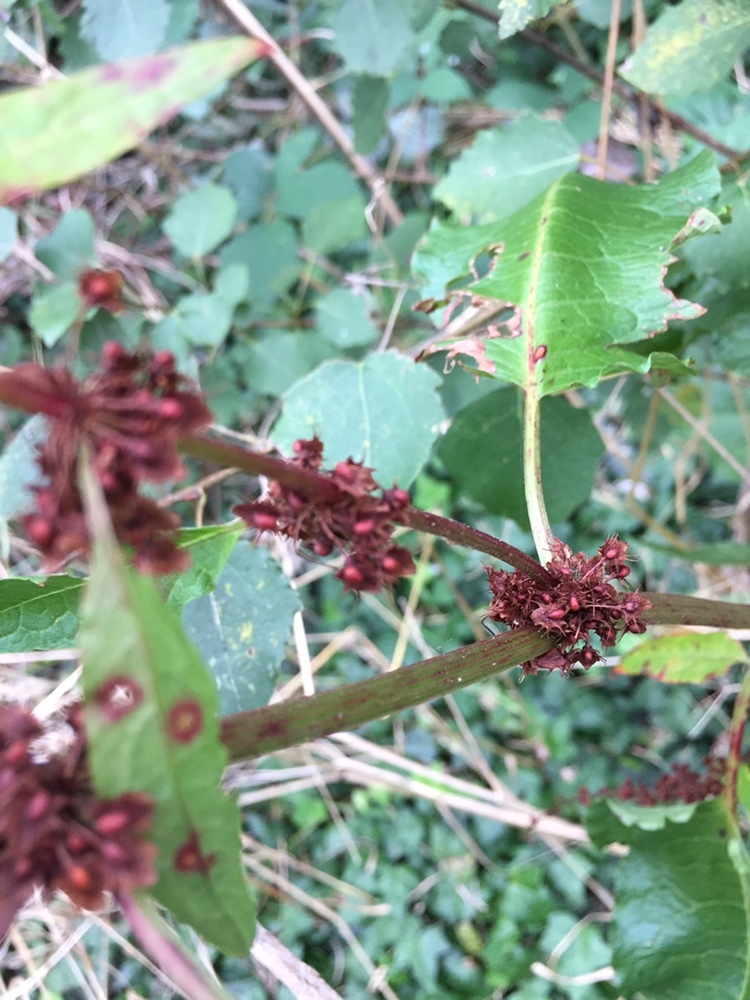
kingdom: Plantae
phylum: Tracheophyta
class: Magnoliopsida
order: Caryophyllales
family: Polygonaceae
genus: Rumex
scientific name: Rumex obtusifolius
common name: Bitter dock
